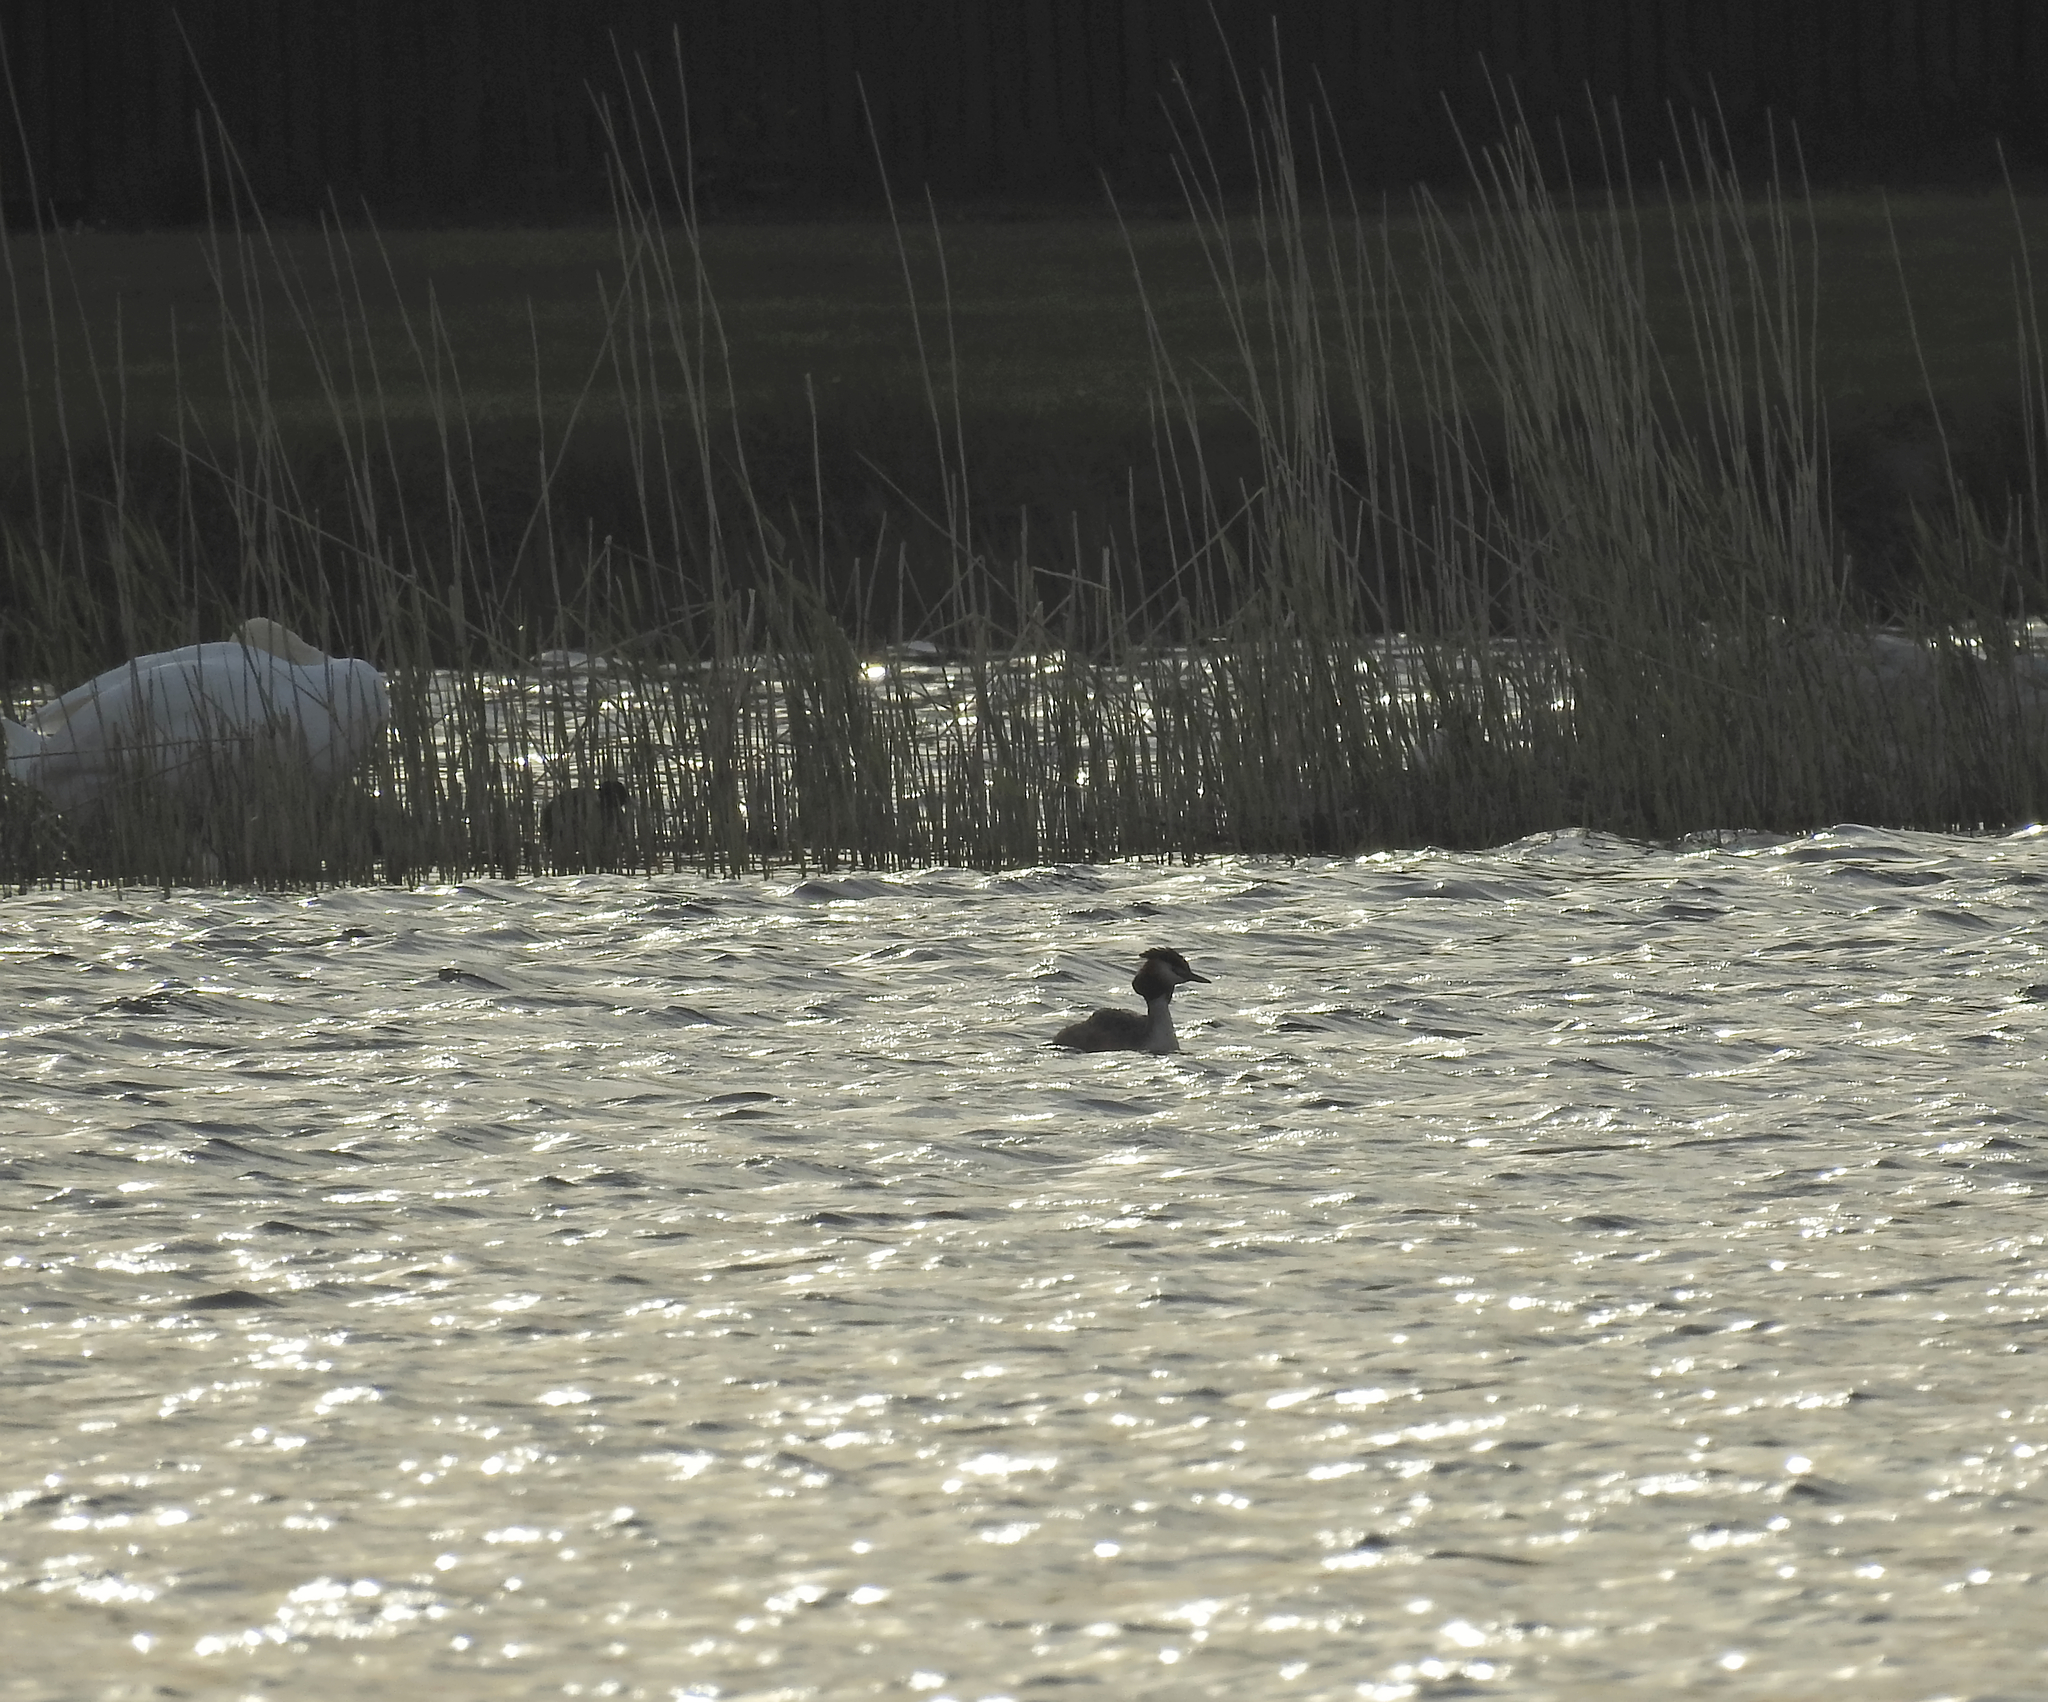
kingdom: Animalia
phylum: Chordata
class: Aves
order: Podicipediformes
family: Podicipedidae
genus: Podiceps
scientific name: Podiceps cristatus
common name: Great crested grebe
